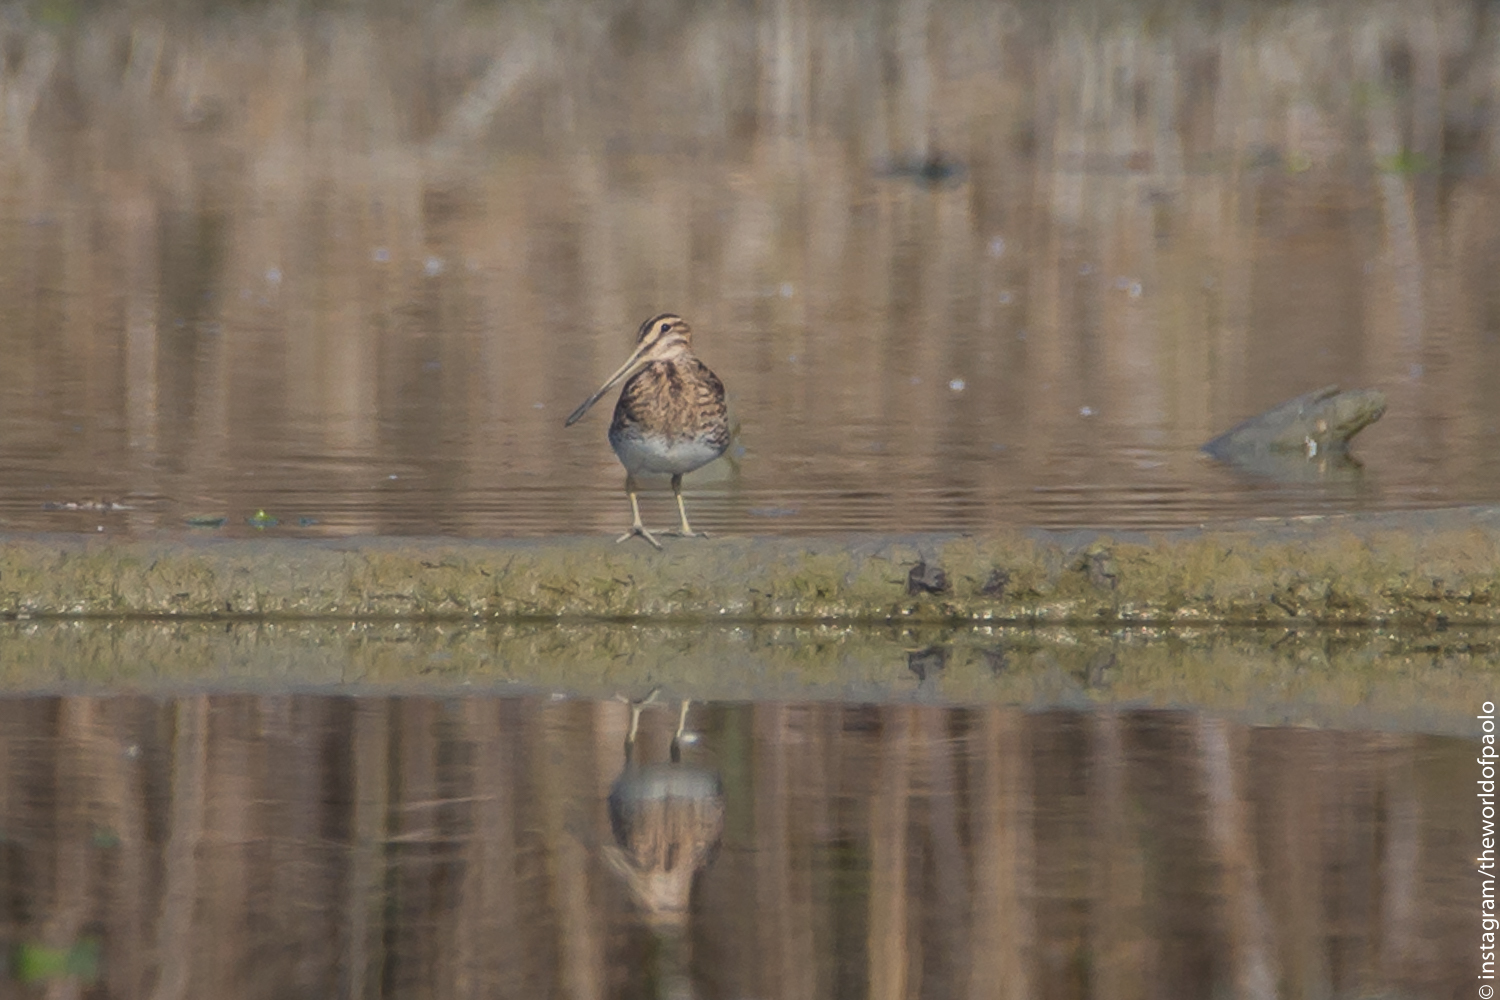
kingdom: Animalia
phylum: Chordata
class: Aves
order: Charadriiformes
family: Scolopacidae
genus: Gallinago
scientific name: Gallinago gallinago
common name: Common snipe
